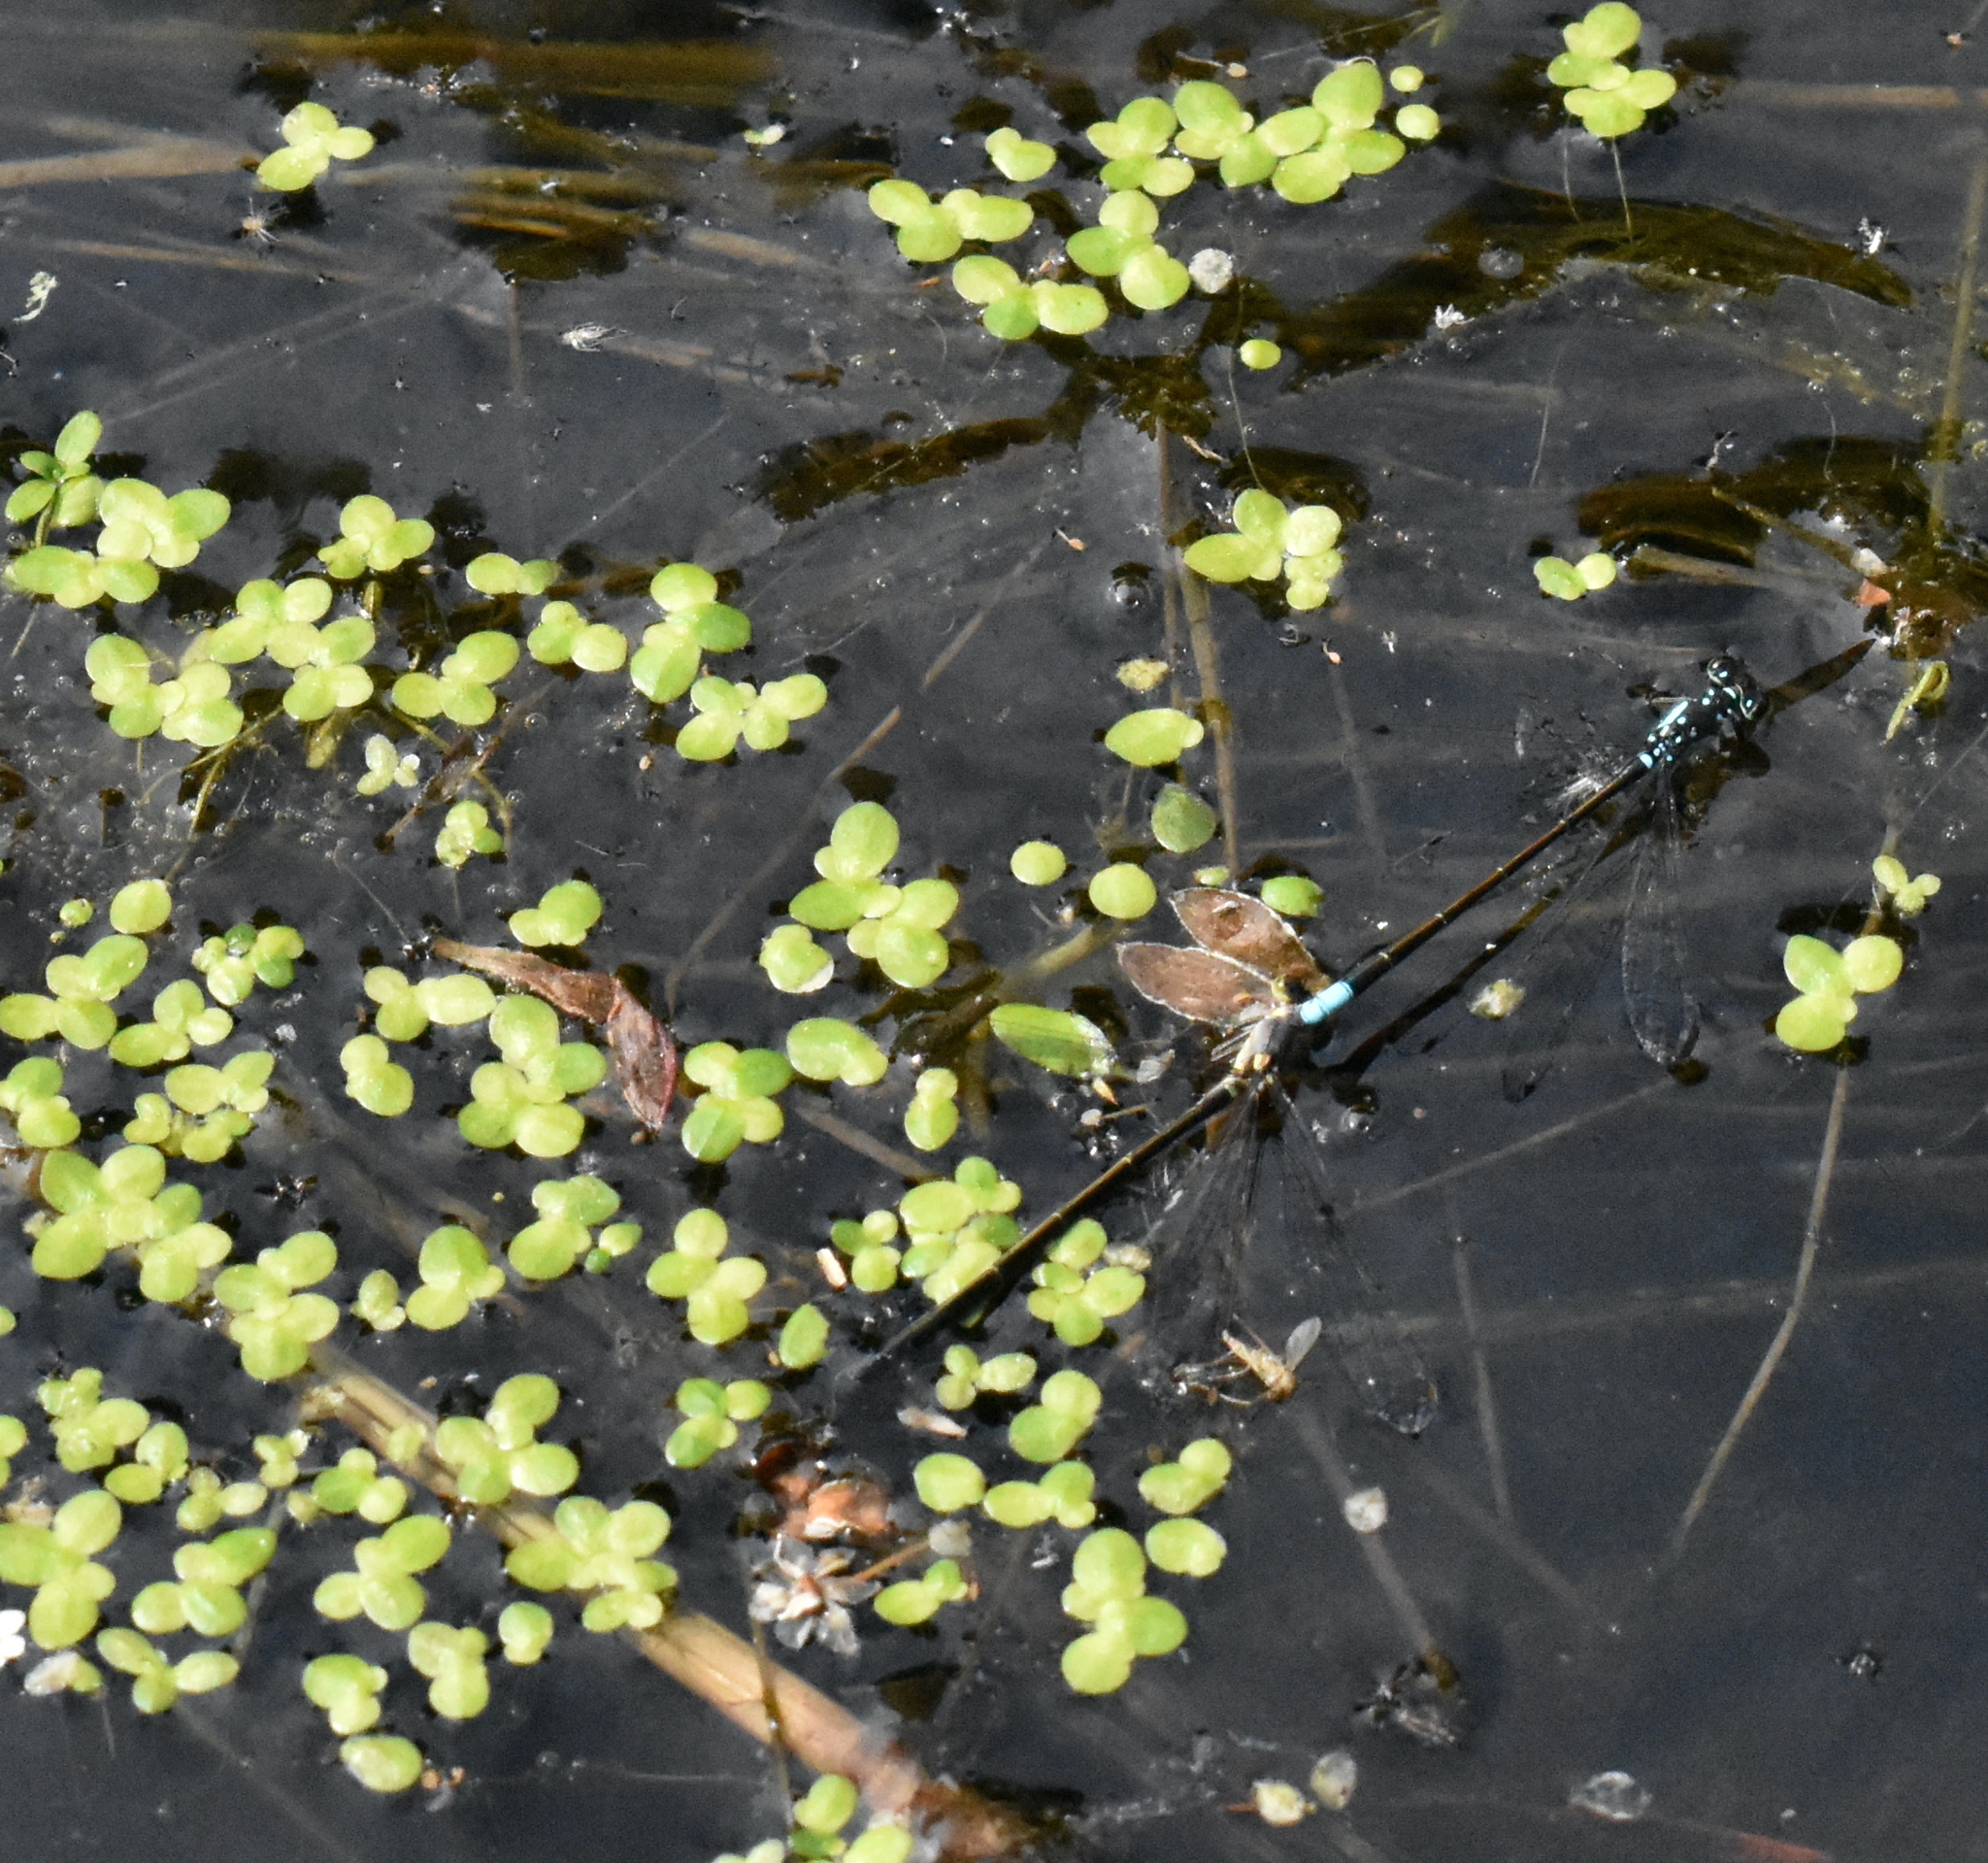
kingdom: Animalia
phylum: Arthropoda
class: Insecta
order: Odonata
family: Coenagrionidae
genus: Ischnura
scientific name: Ischnura cervula
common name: Pacific forktail
